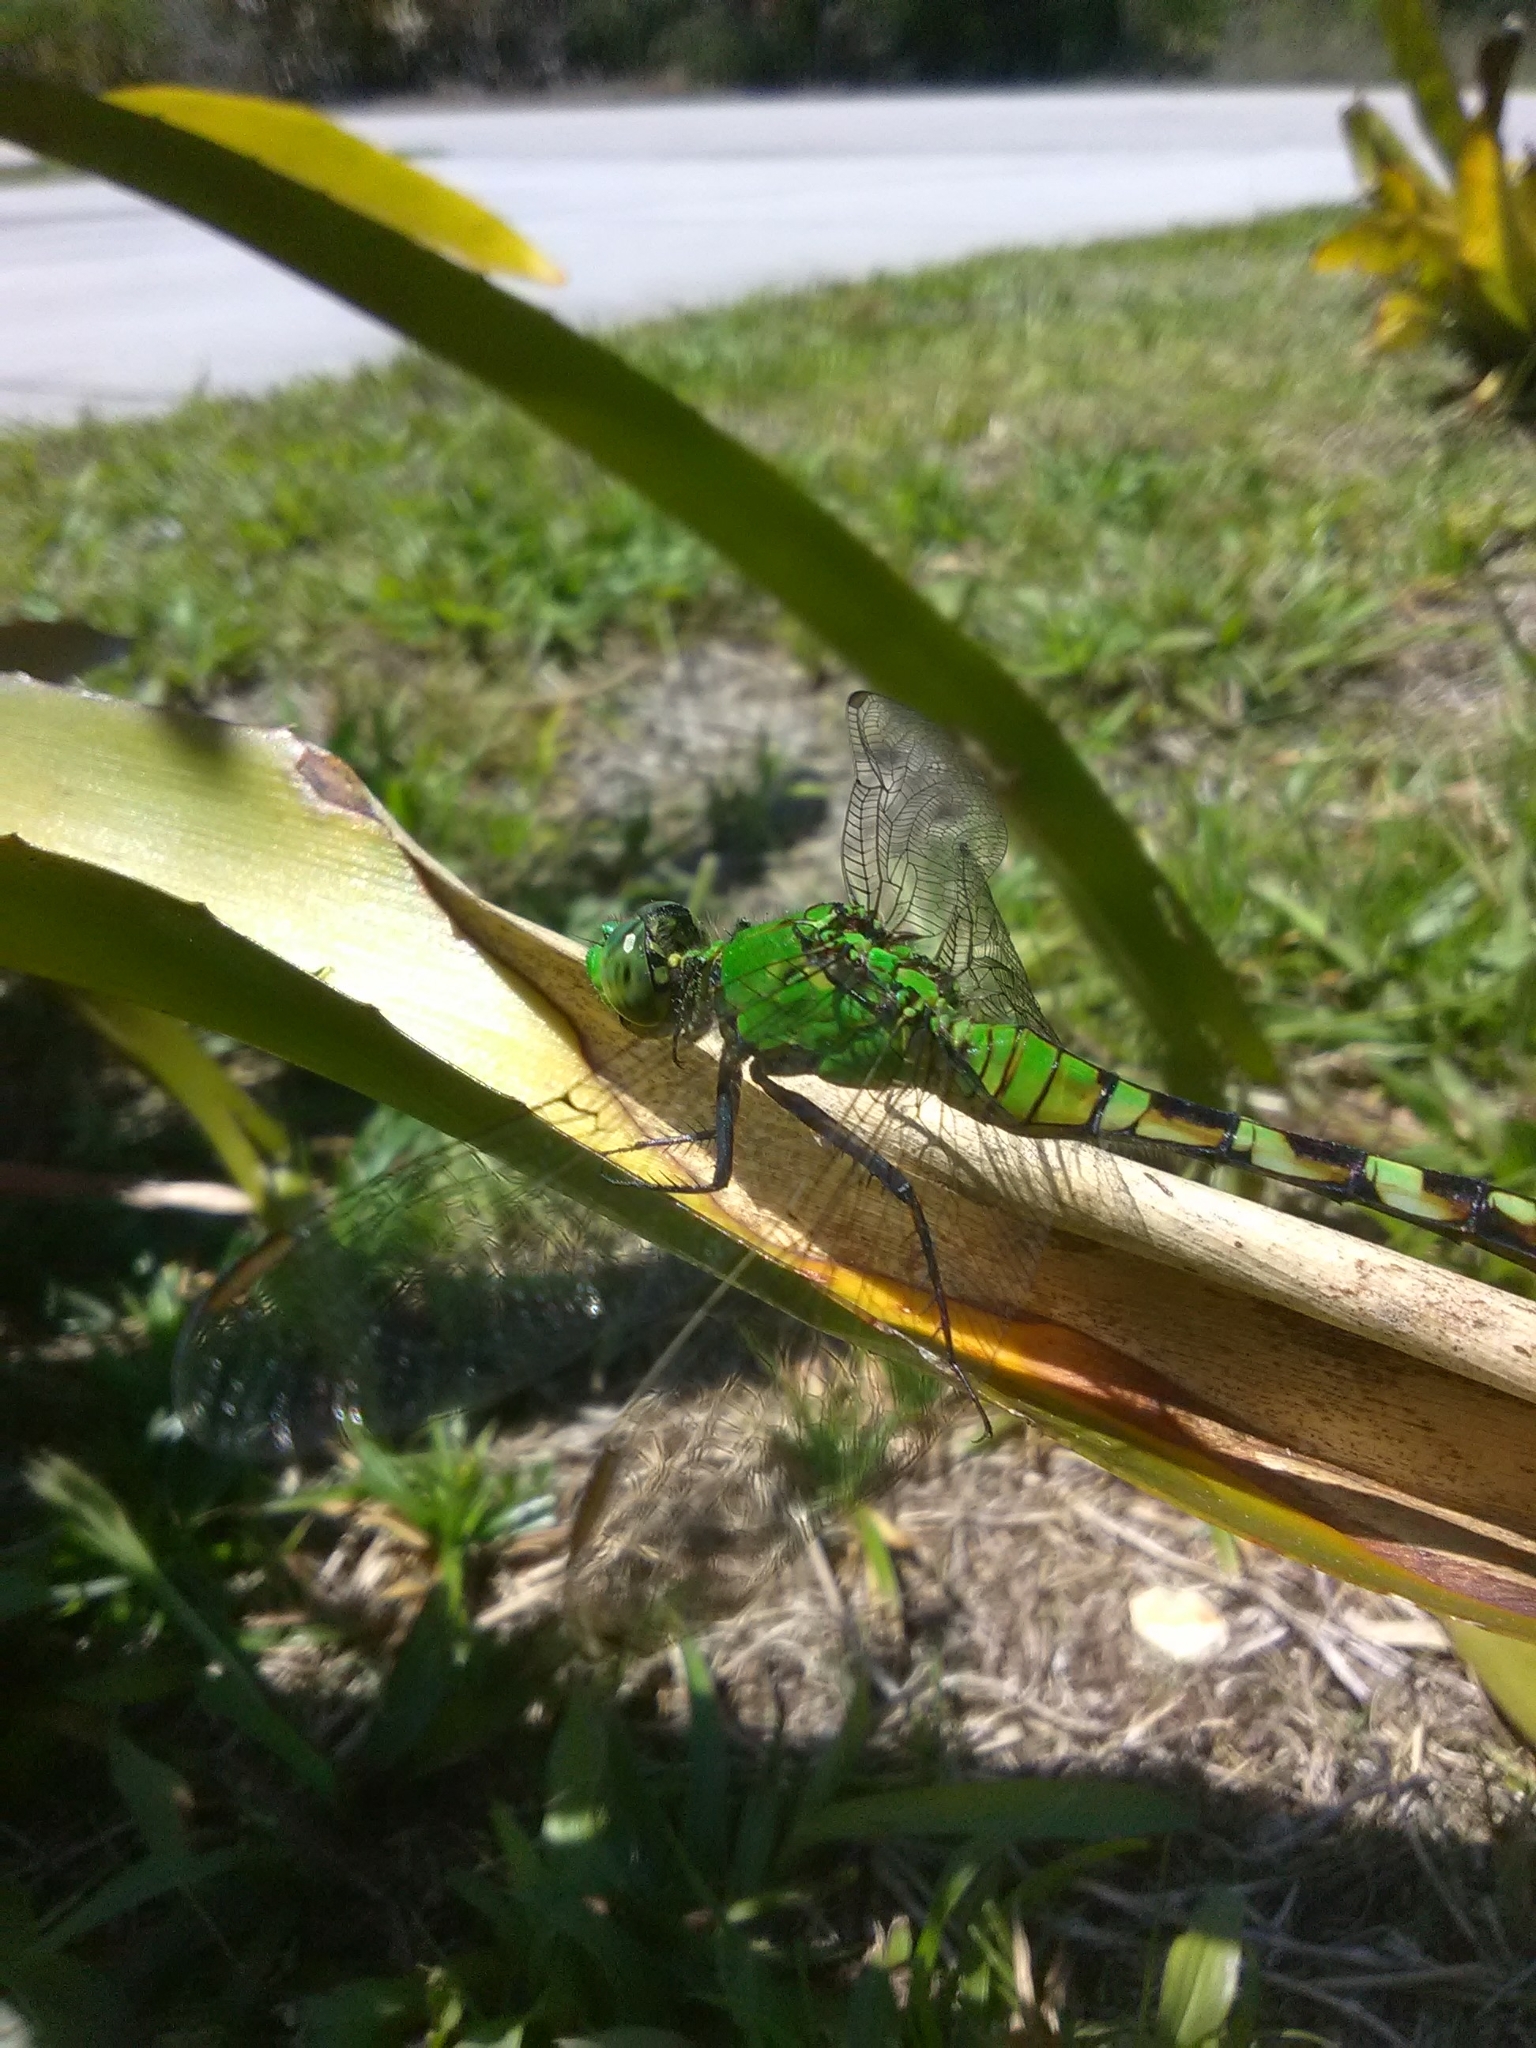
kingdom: Animalia
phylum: Arthropoda
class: Insecta
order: Odonata
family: Libellulidae
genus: Erythemis
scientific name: Erythemis simplicicollis
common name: Eastern pondhawk
